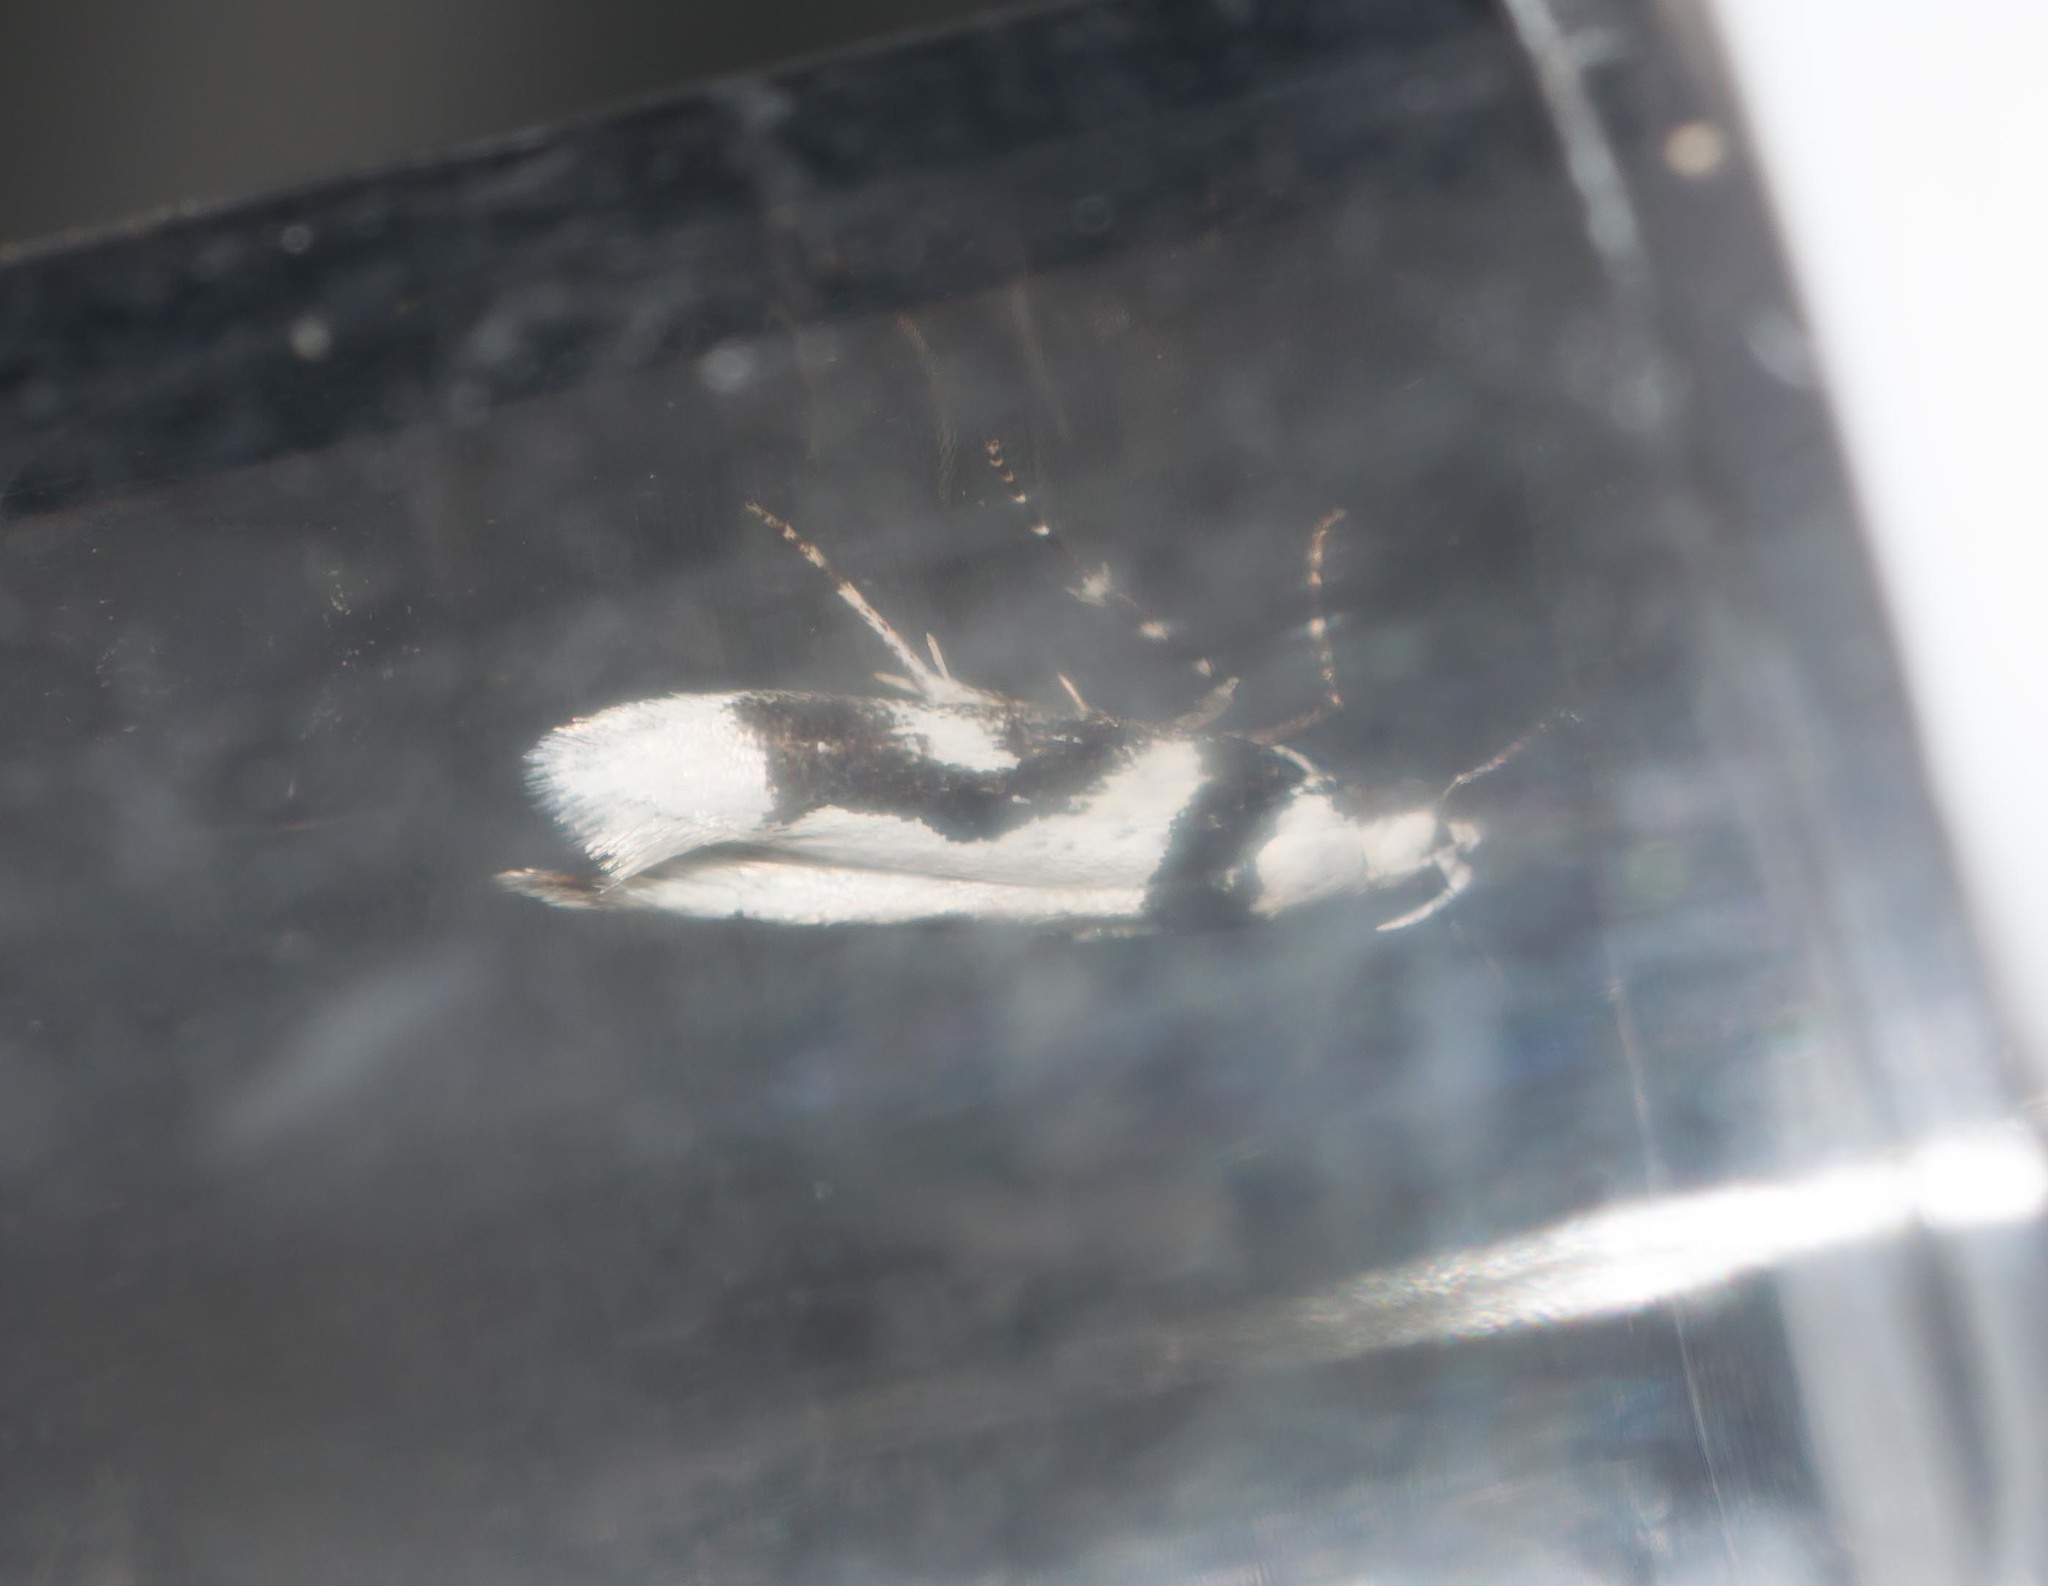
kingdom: Animalia
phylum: Arthropoda
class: Insecta
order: Lepidoptera
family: Cosmopterigidae
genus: Hyposmochoma
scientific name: Hyposmochoma empedota
